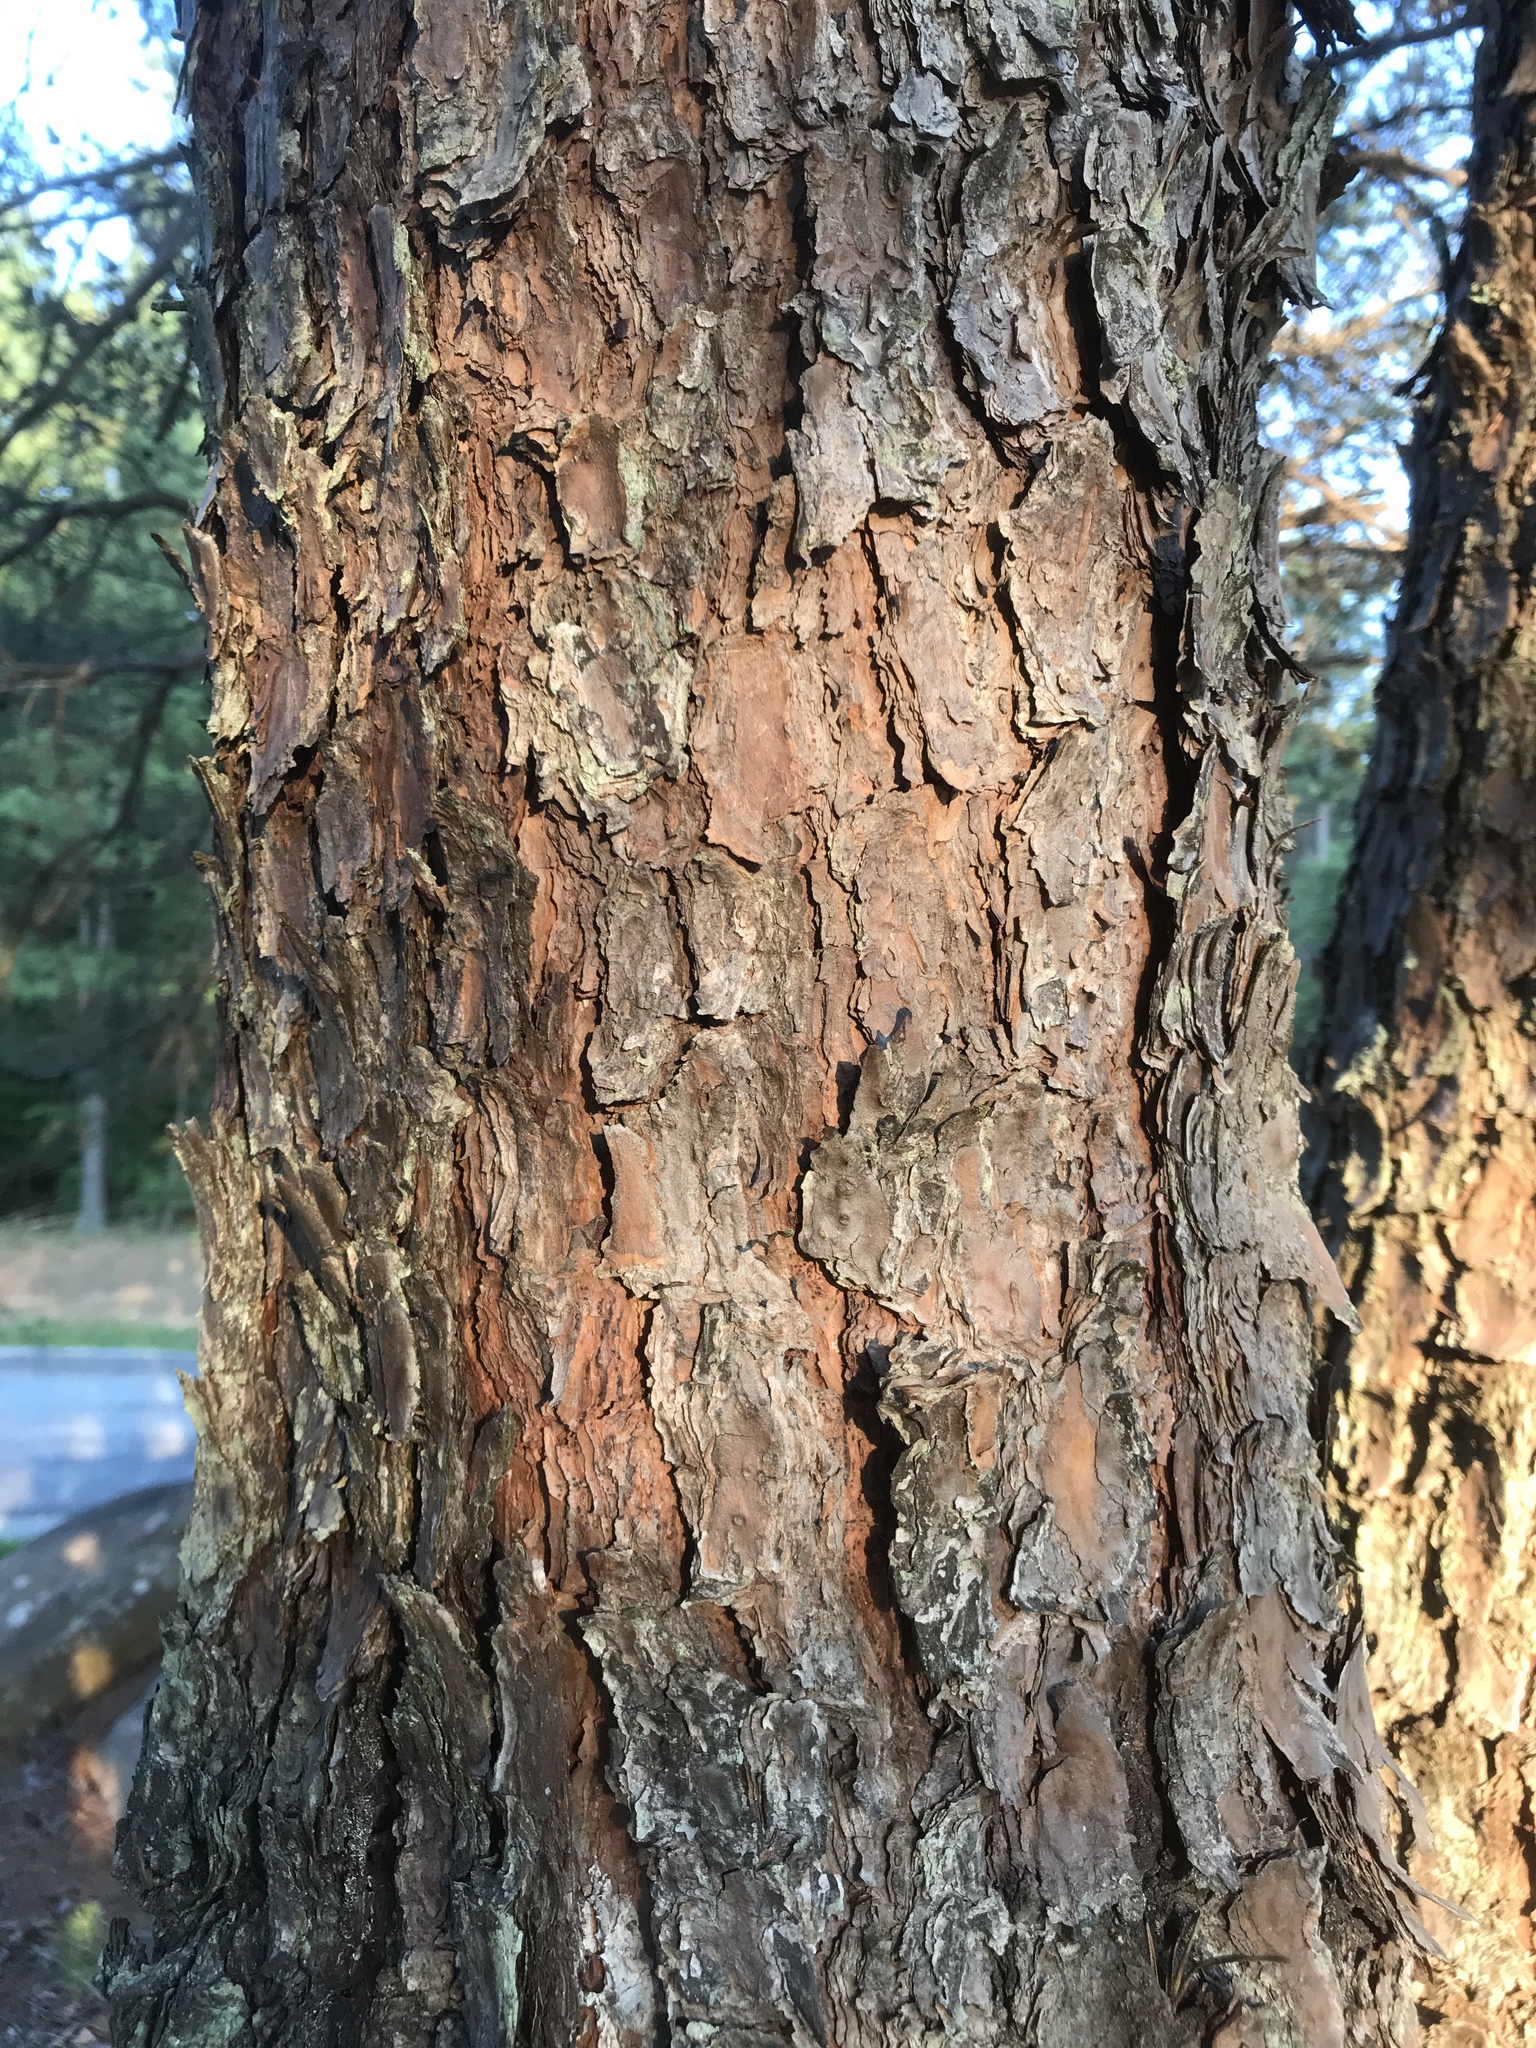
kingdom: Plantae
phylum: Tracheophyta
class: Pinopsida
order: Pinales
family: Pinaceae
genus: Pinus
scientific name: Pinus virginiana
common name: Scrub pine
